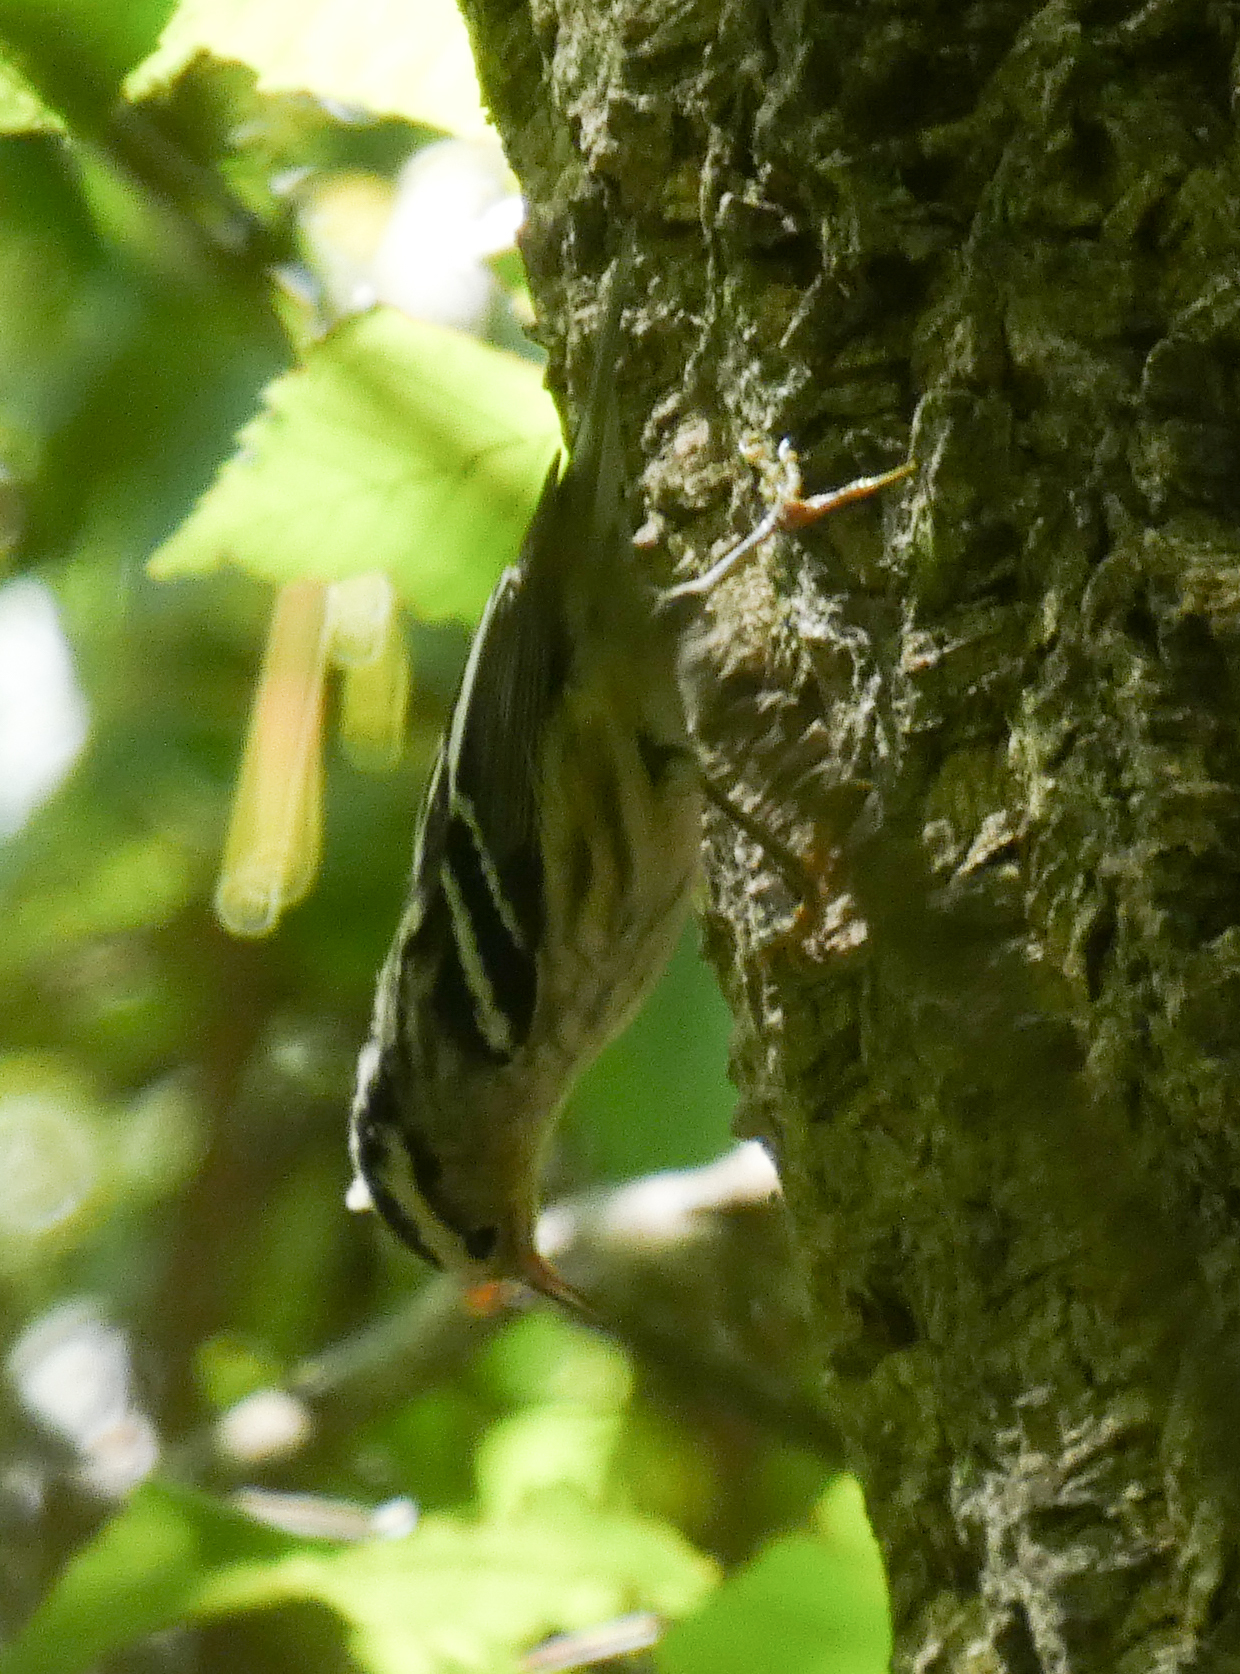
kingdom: Animalia
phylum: Chordata
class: Aves
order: Passeriformes
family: Parulidae
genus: Mniotilta
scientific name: Mniotilta varia
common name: Black-and-white warbler
